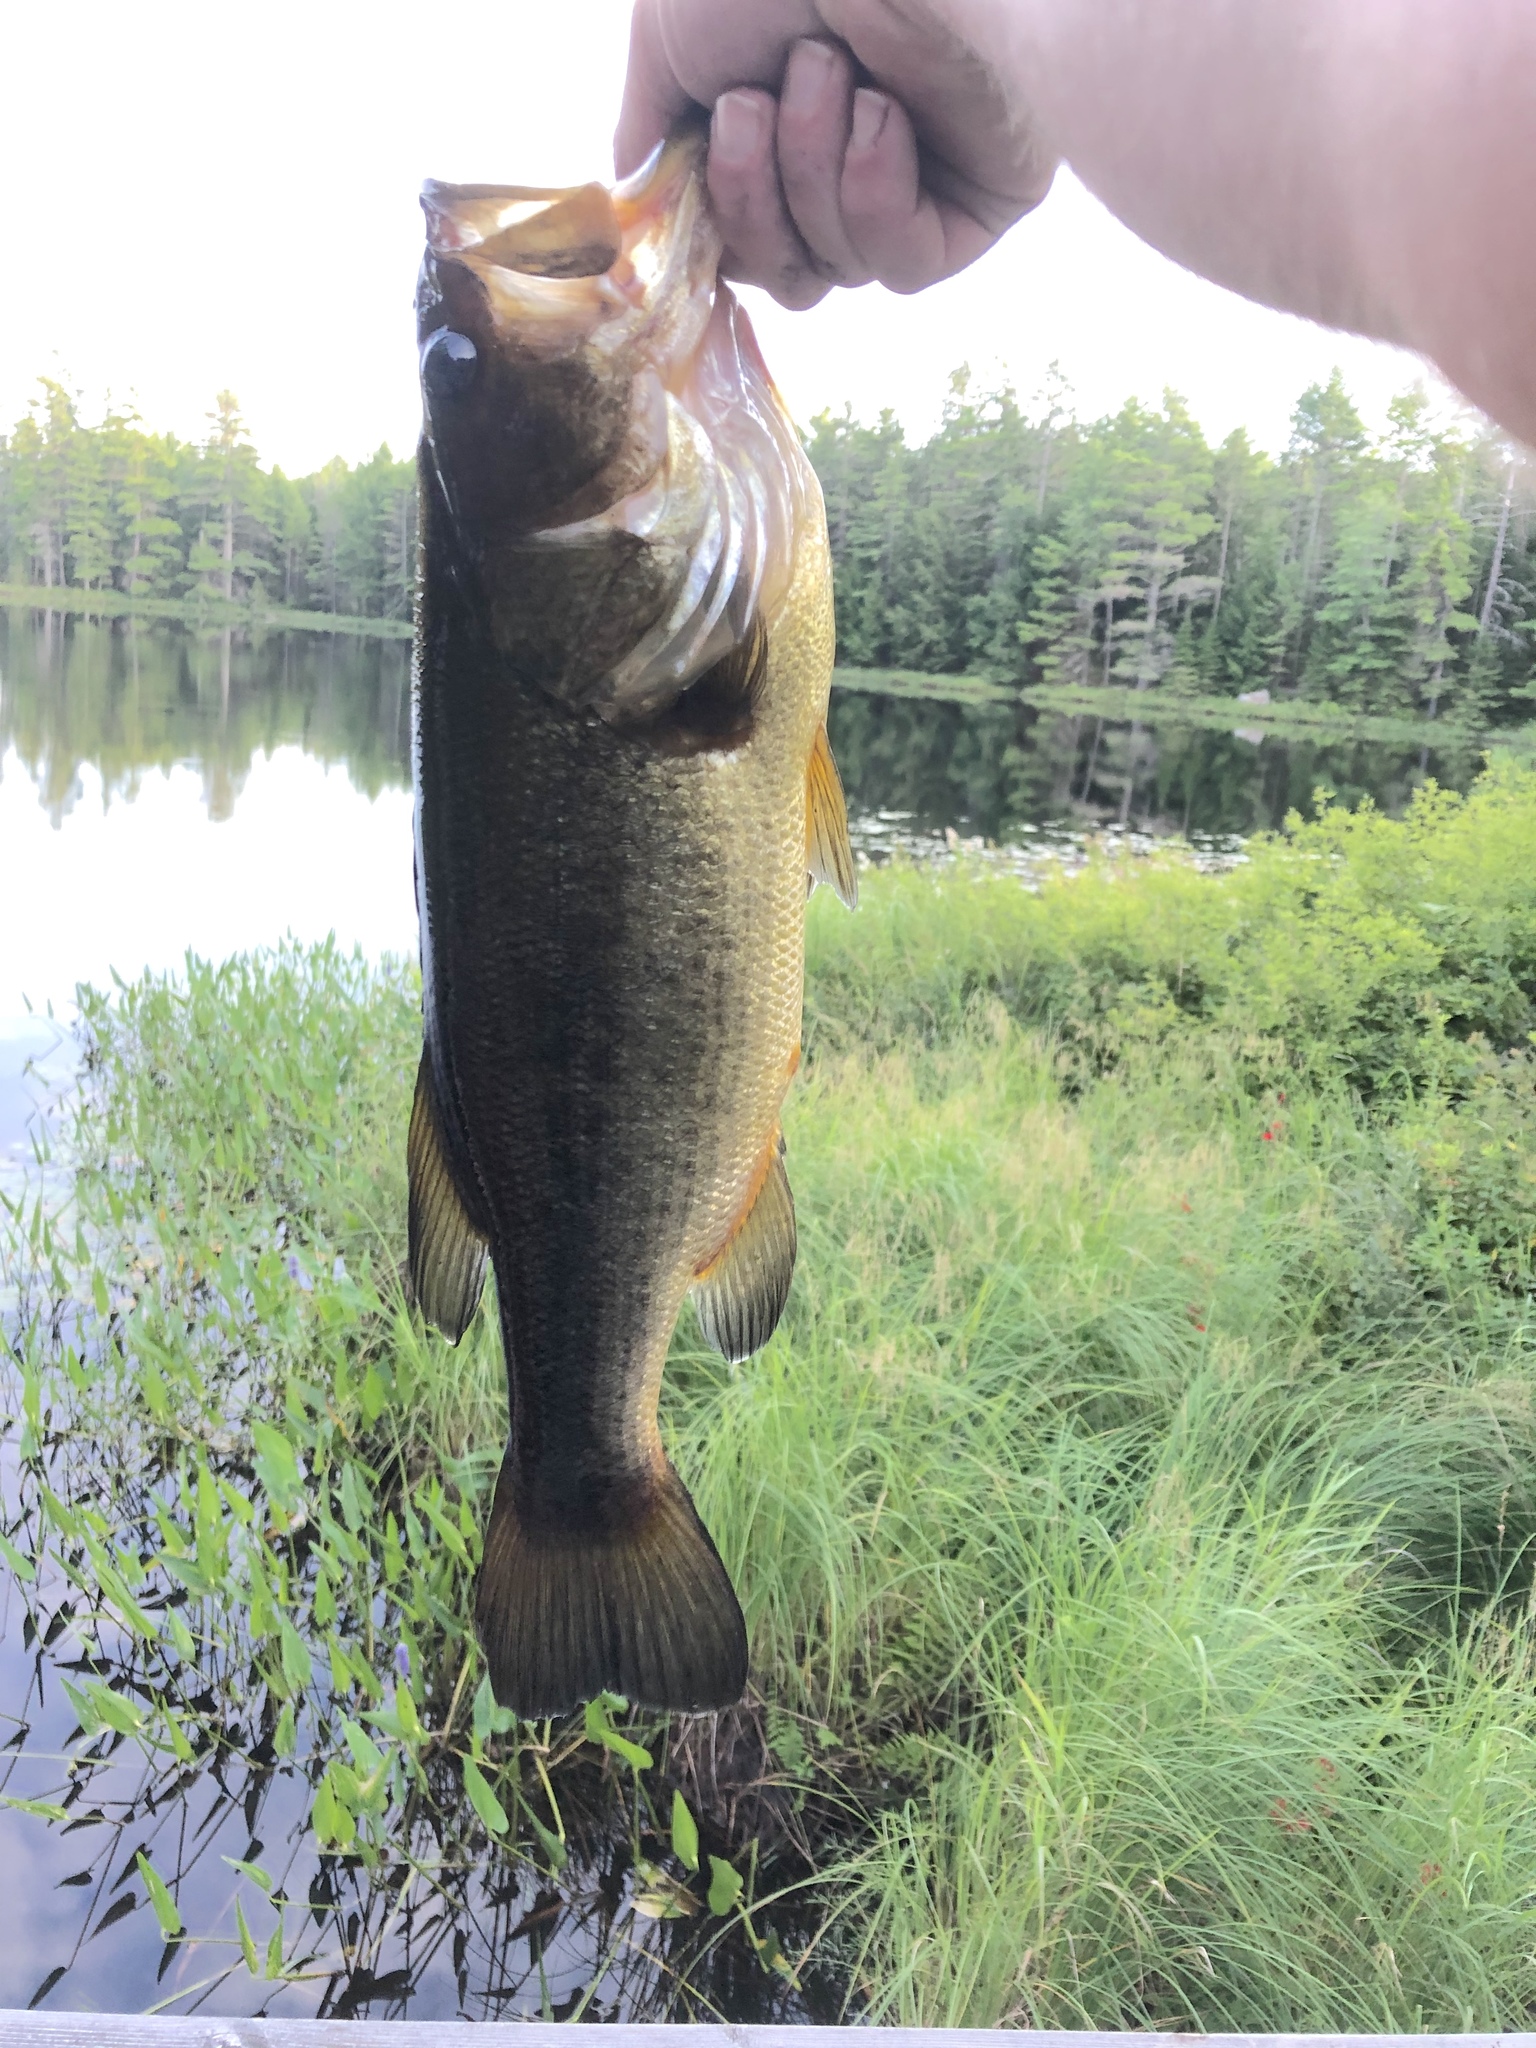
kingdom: Animalia
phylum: Chordata
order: Perciformes
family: Centrarchidae
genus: Micropterus
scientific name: Micropterus
